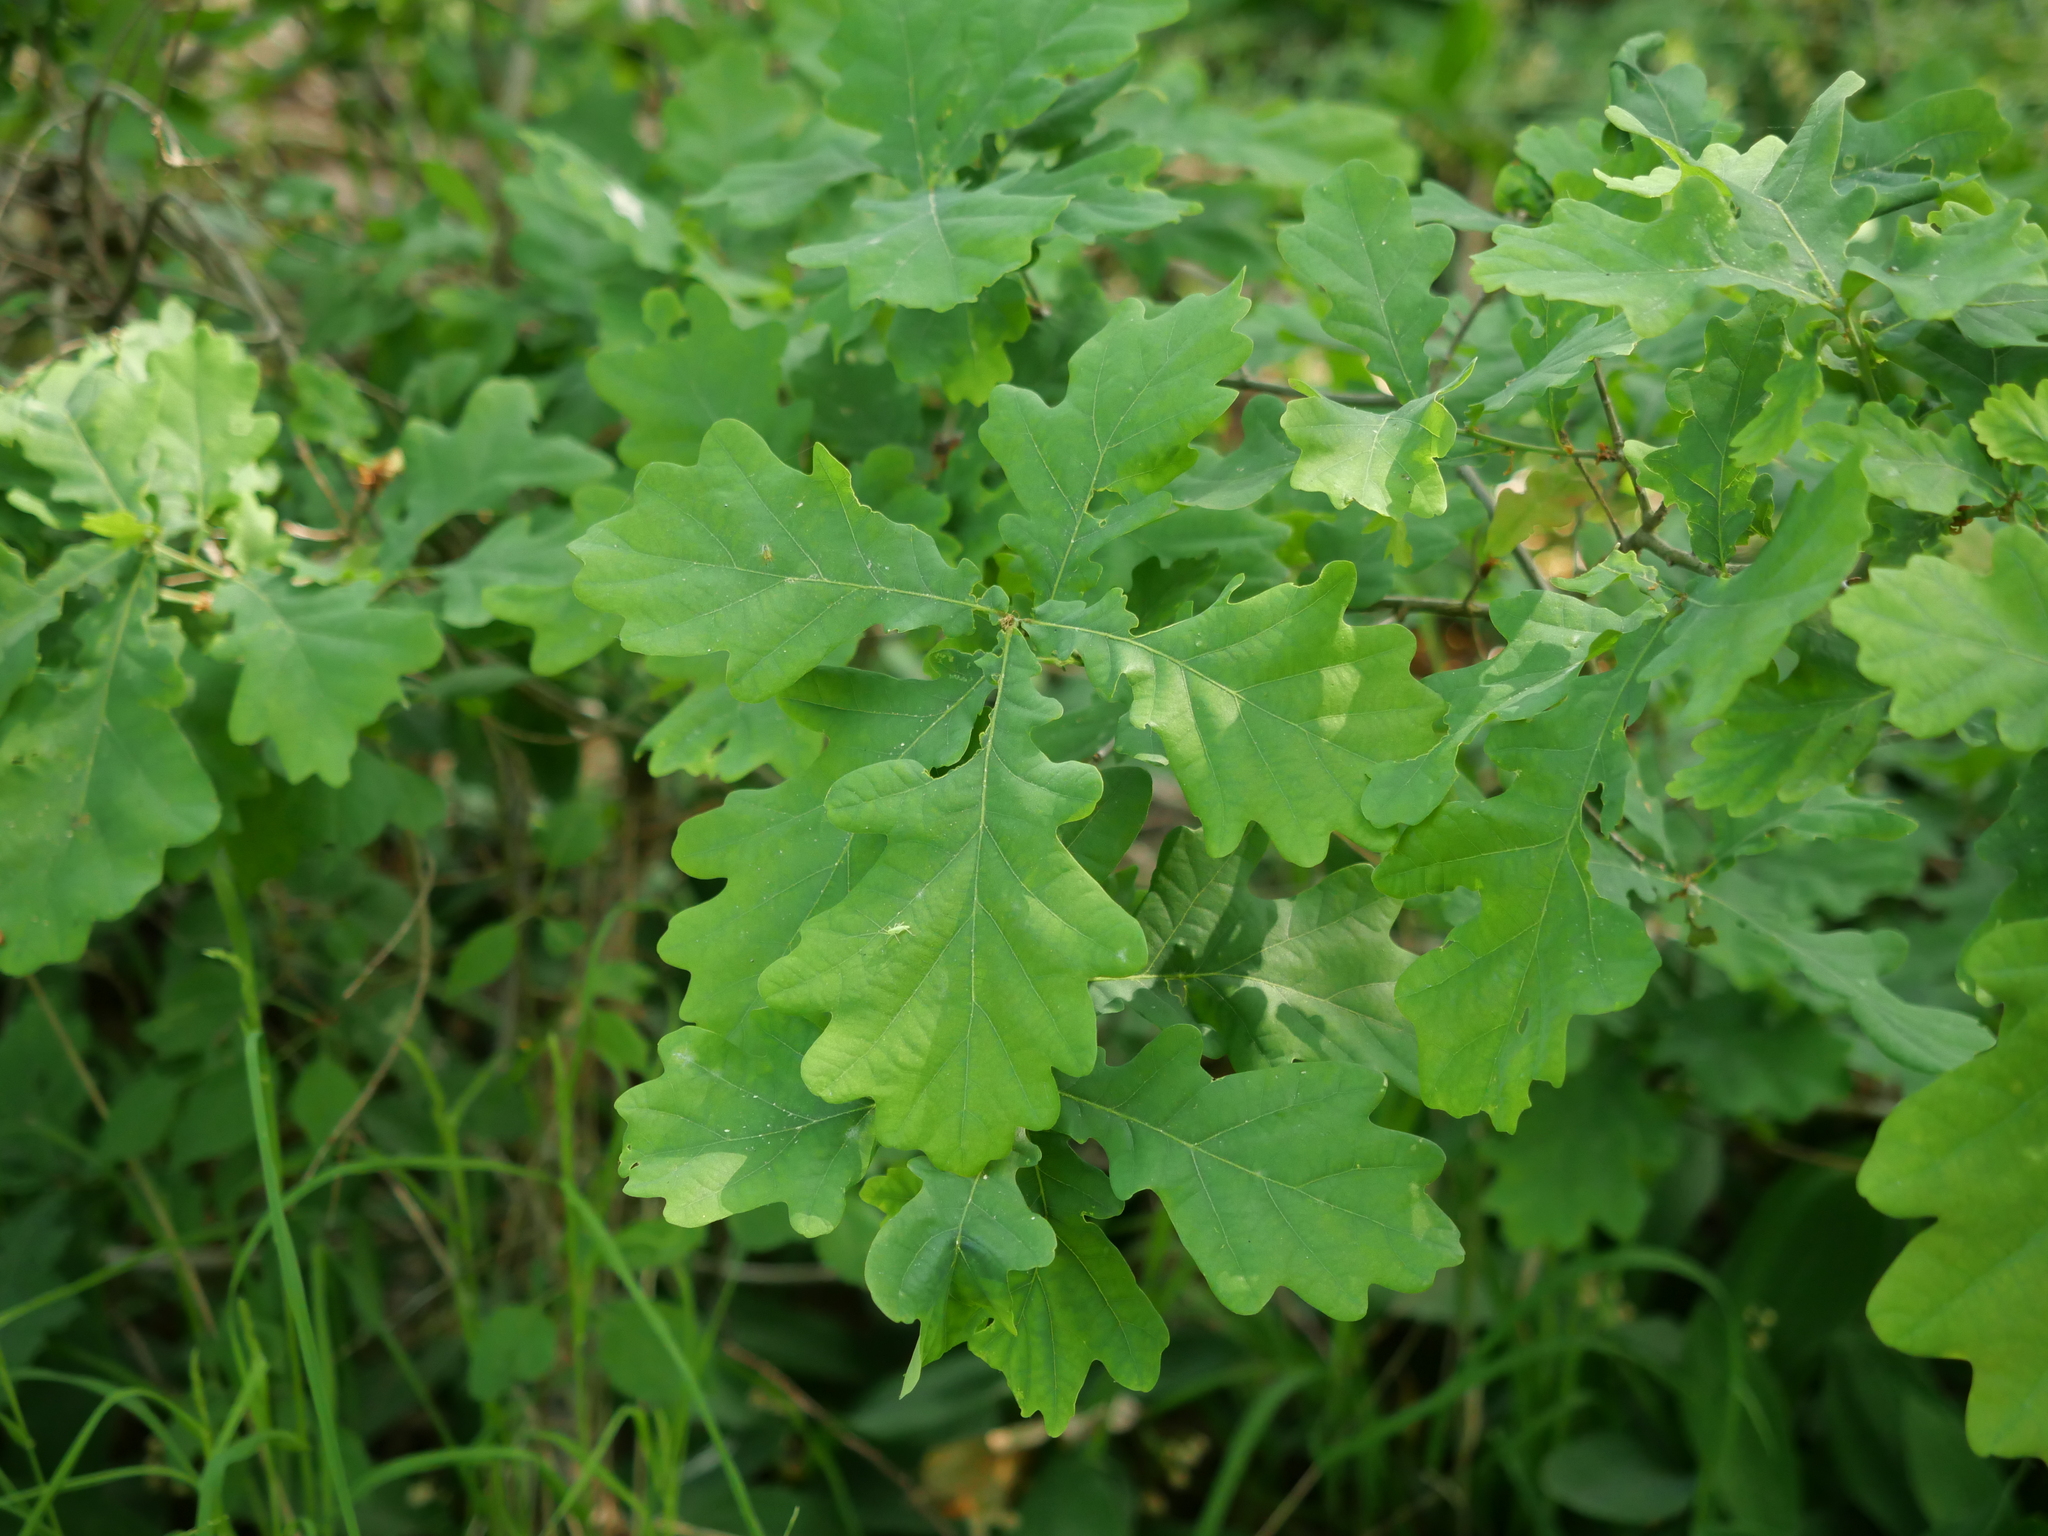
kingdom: Plantae
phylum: Tracheophyta
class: Magnoliopsida
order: Fagales
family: Fagaceae
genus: Quercus
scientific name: Quercus robur
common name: Pedunculate oak
